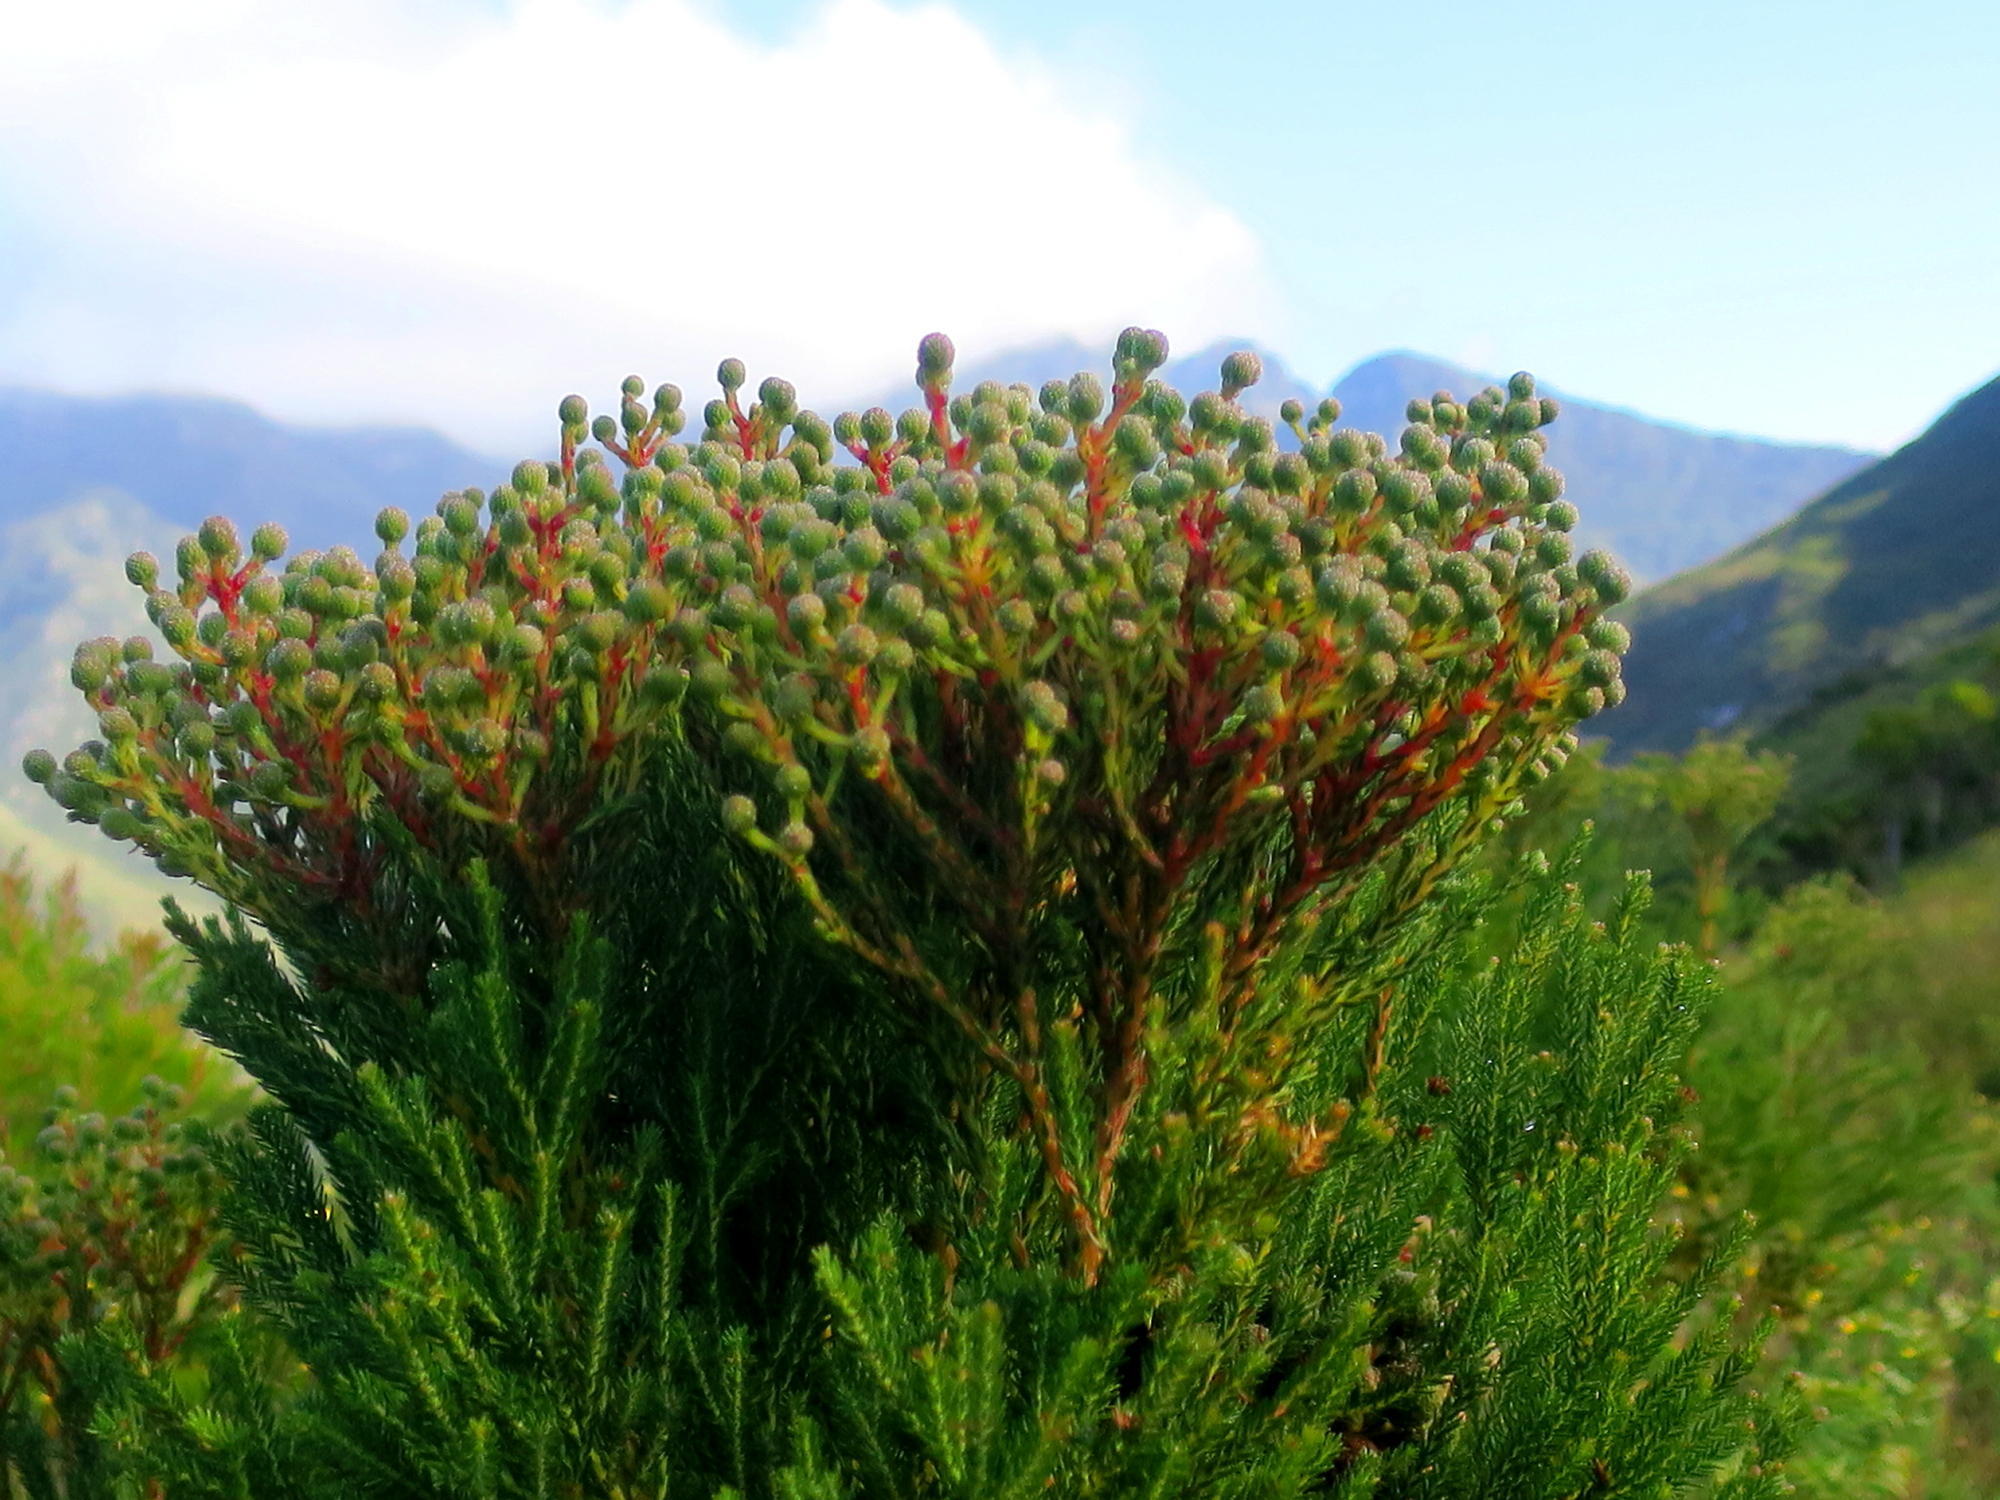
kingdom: Plantae
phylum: Tracheophyta
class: Magnoliopsida
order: Bruniales
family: Bruniaceae
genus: Berzelia
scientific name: Berzelia intermedia
